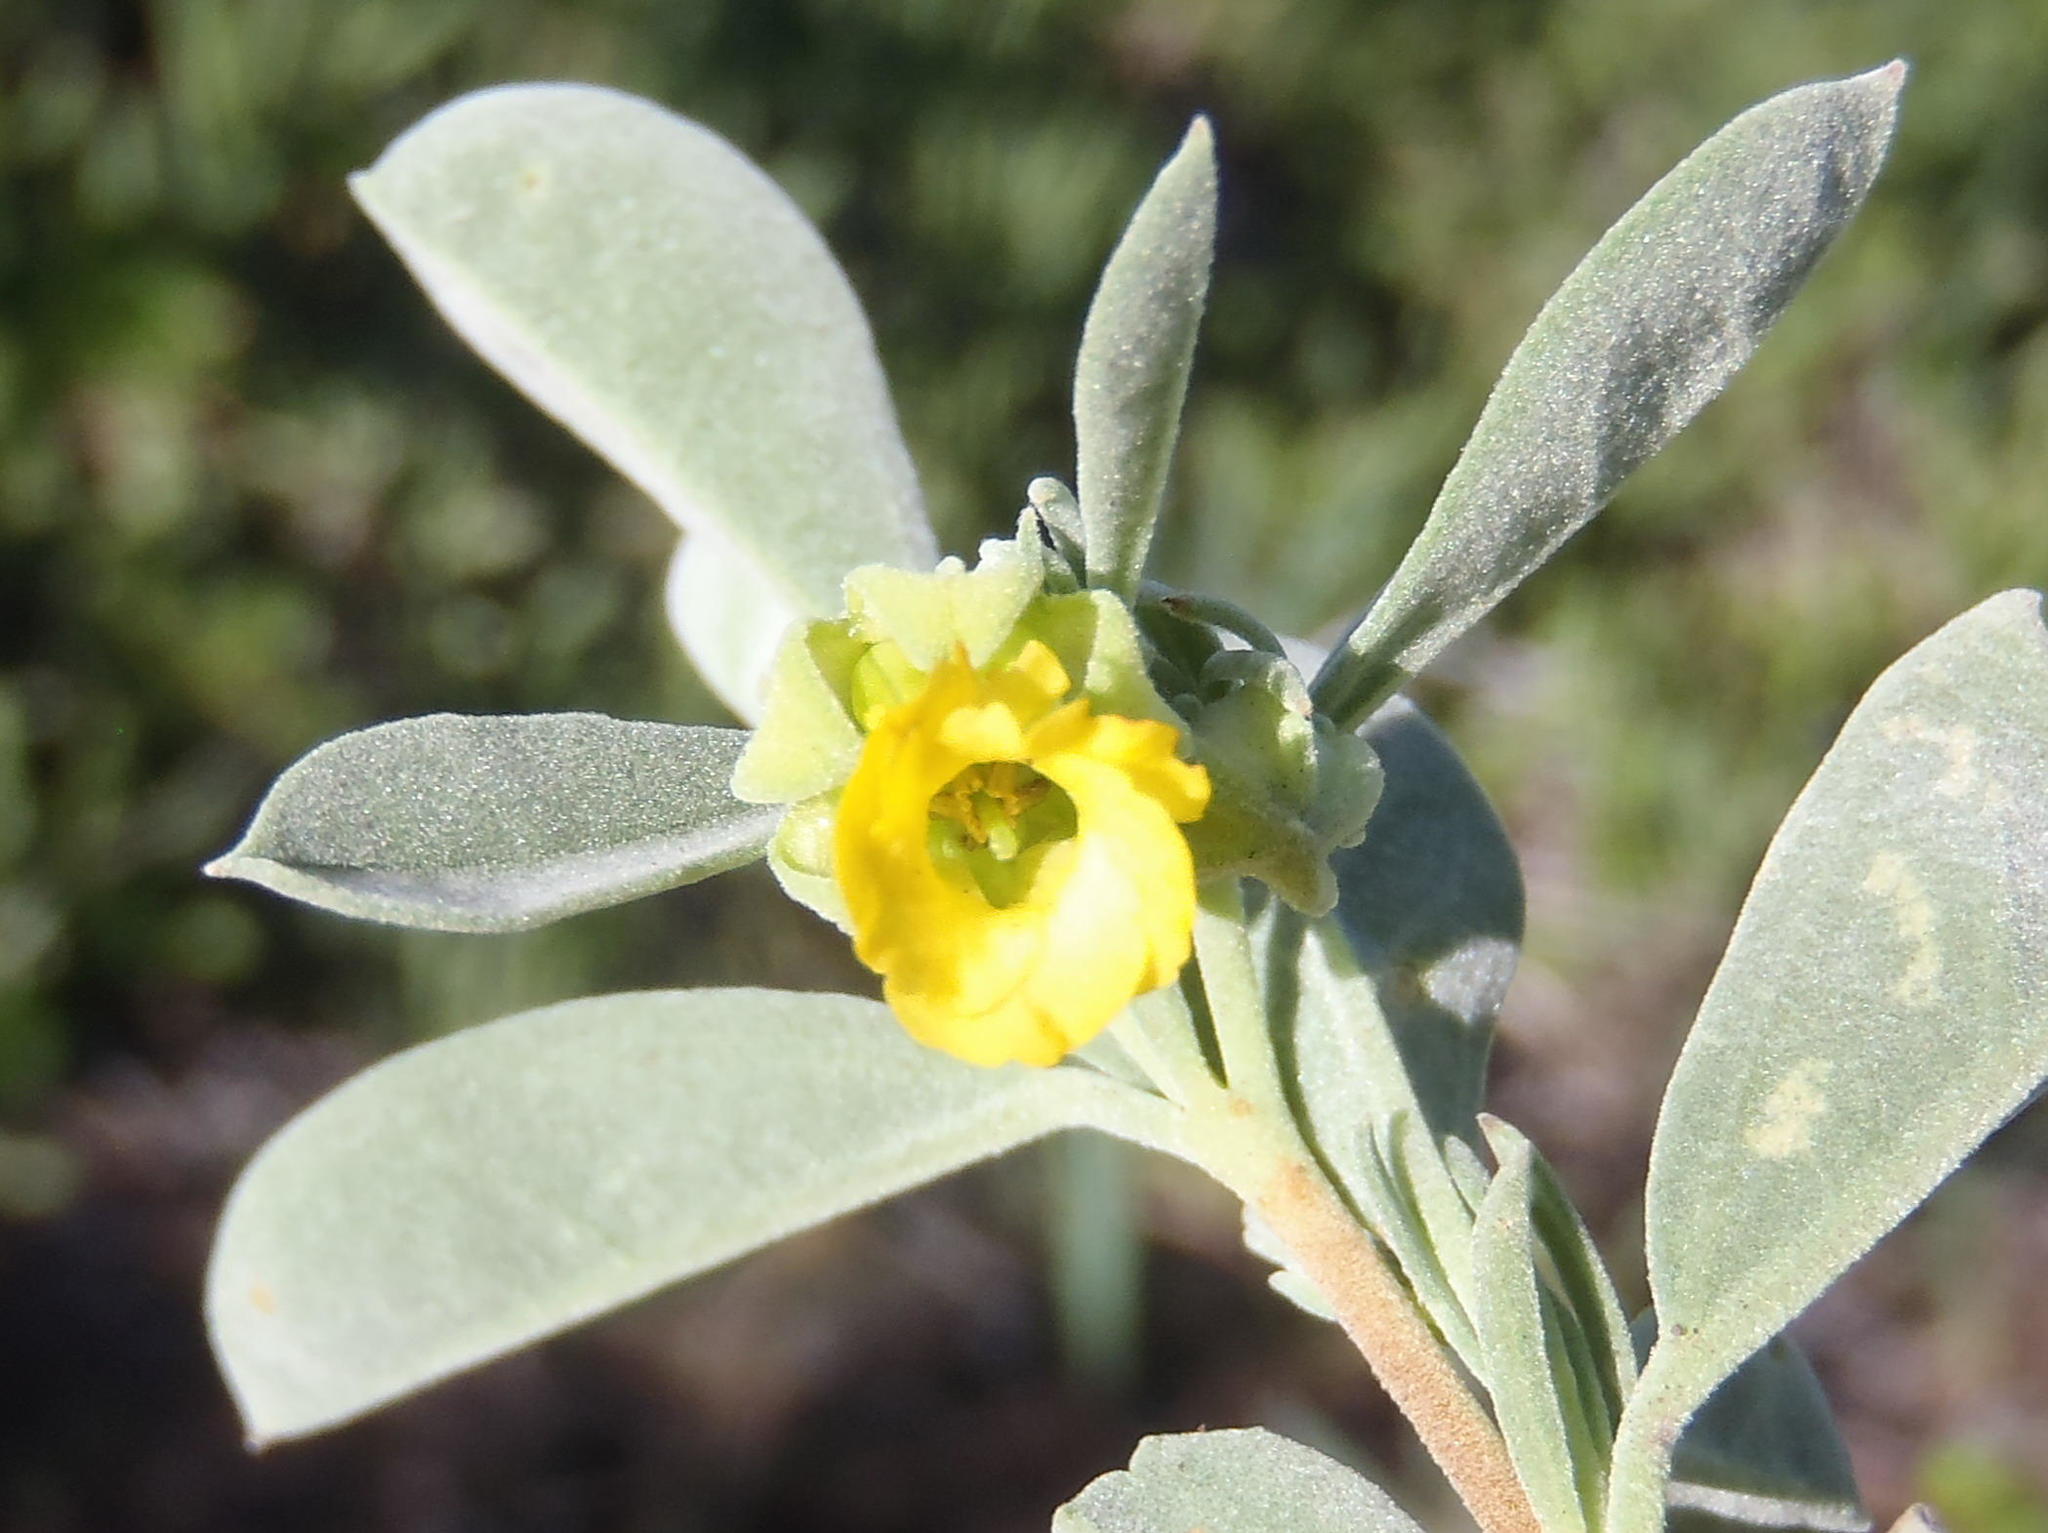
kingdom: Plantae
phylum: Tracheophyta
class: Magnoliopsida
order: Malvales
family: Malvaceae
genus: Hermannia
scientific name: Hermannia lavandulifolia
